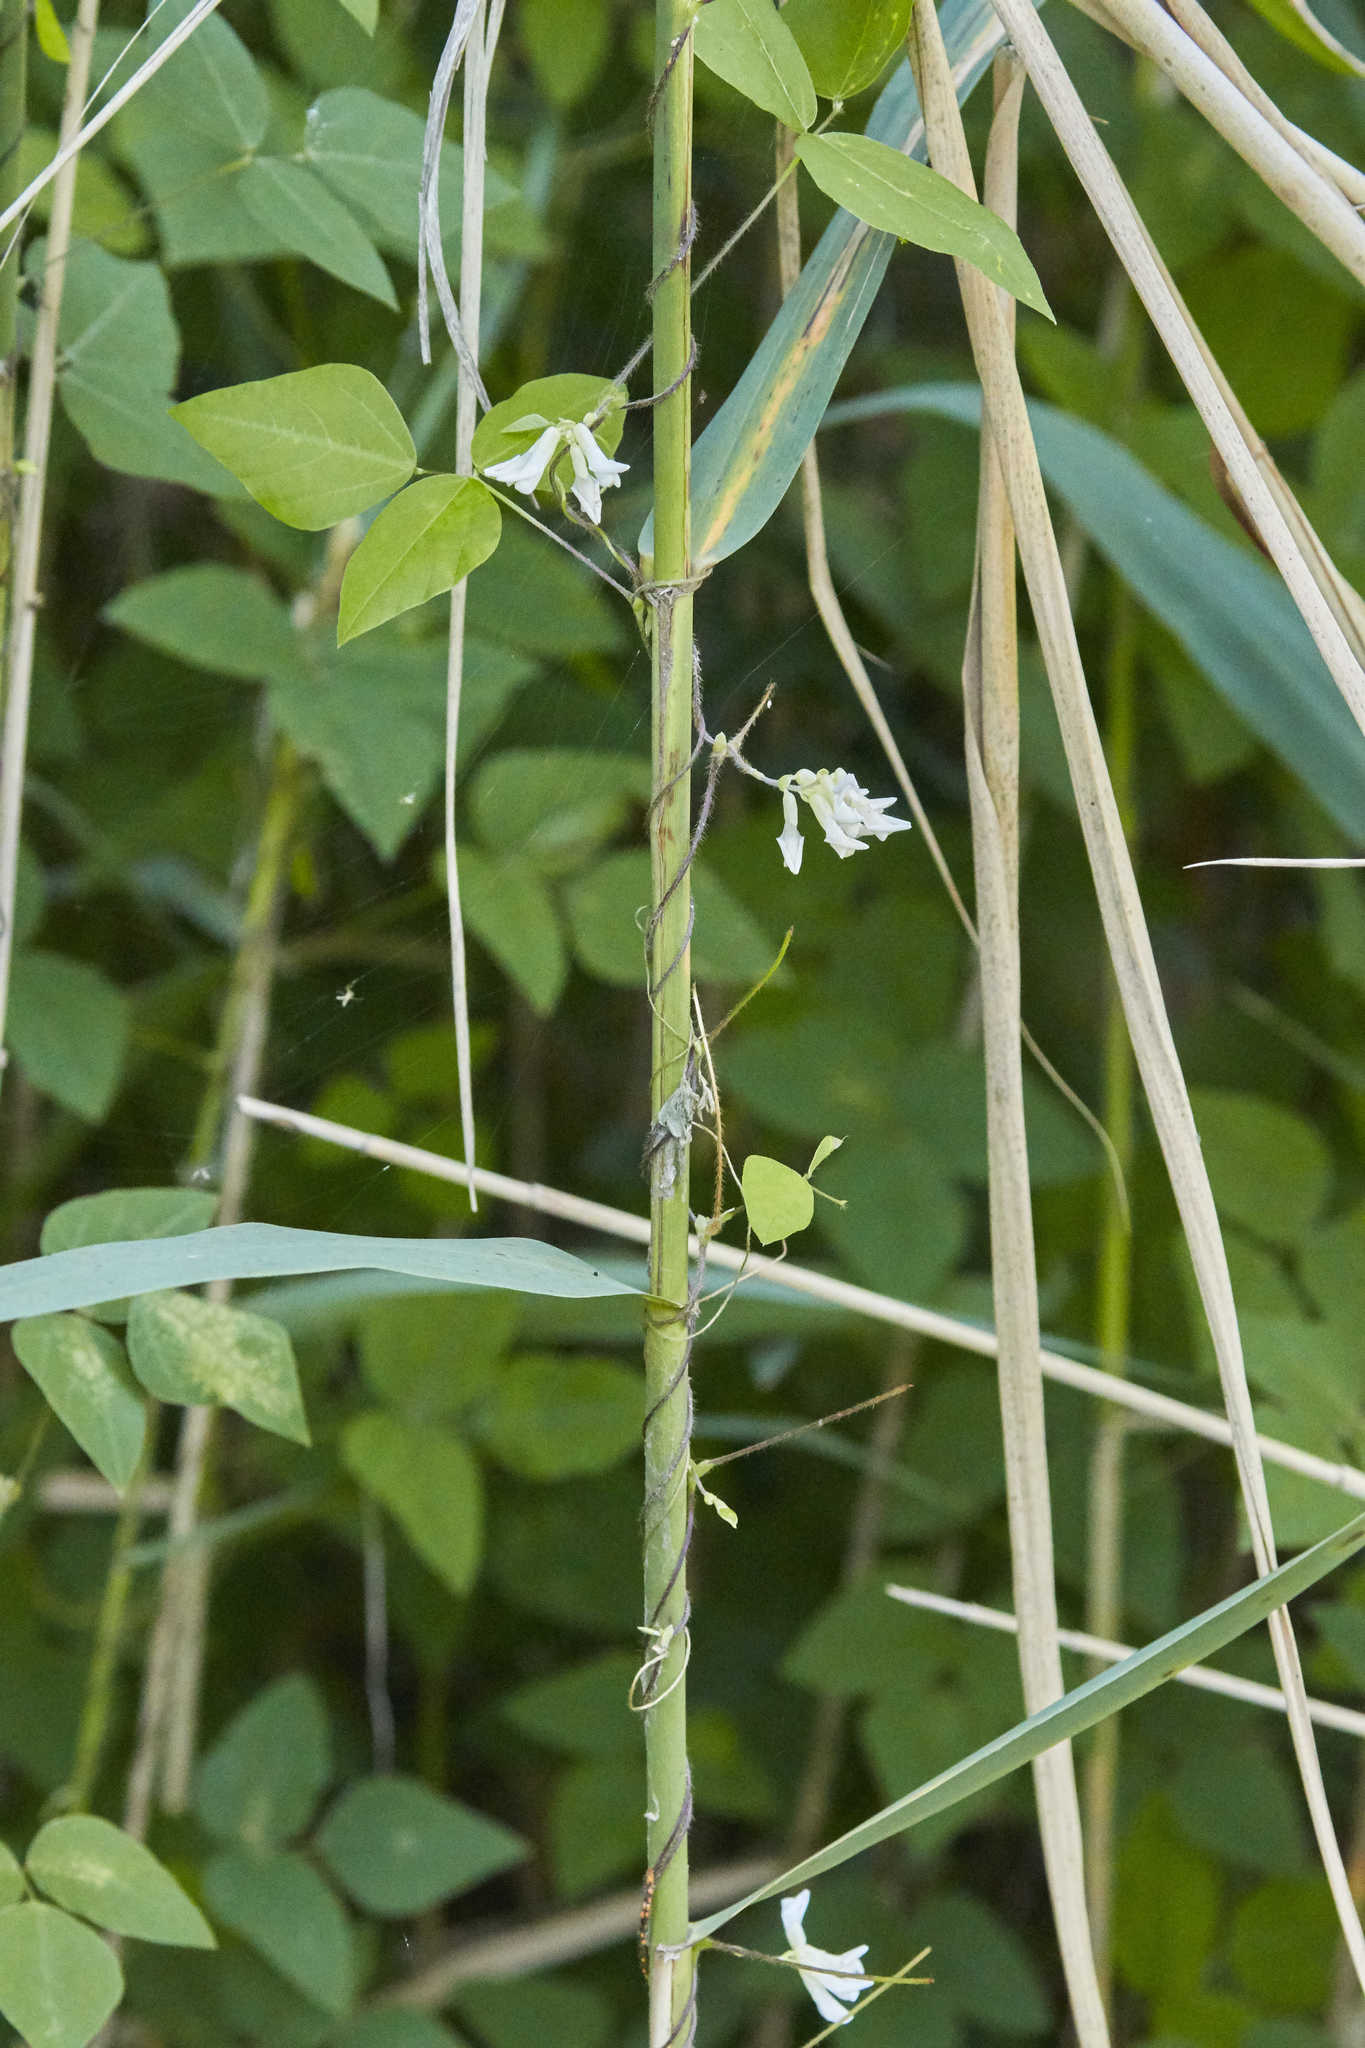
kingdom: Plantae
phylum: Tracheophyta
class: Magnoliopsida
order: Fabales
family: Fabaceae
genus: Amphicarpaea
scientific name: Amphicarpaea bracteata
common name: American hog peanut
